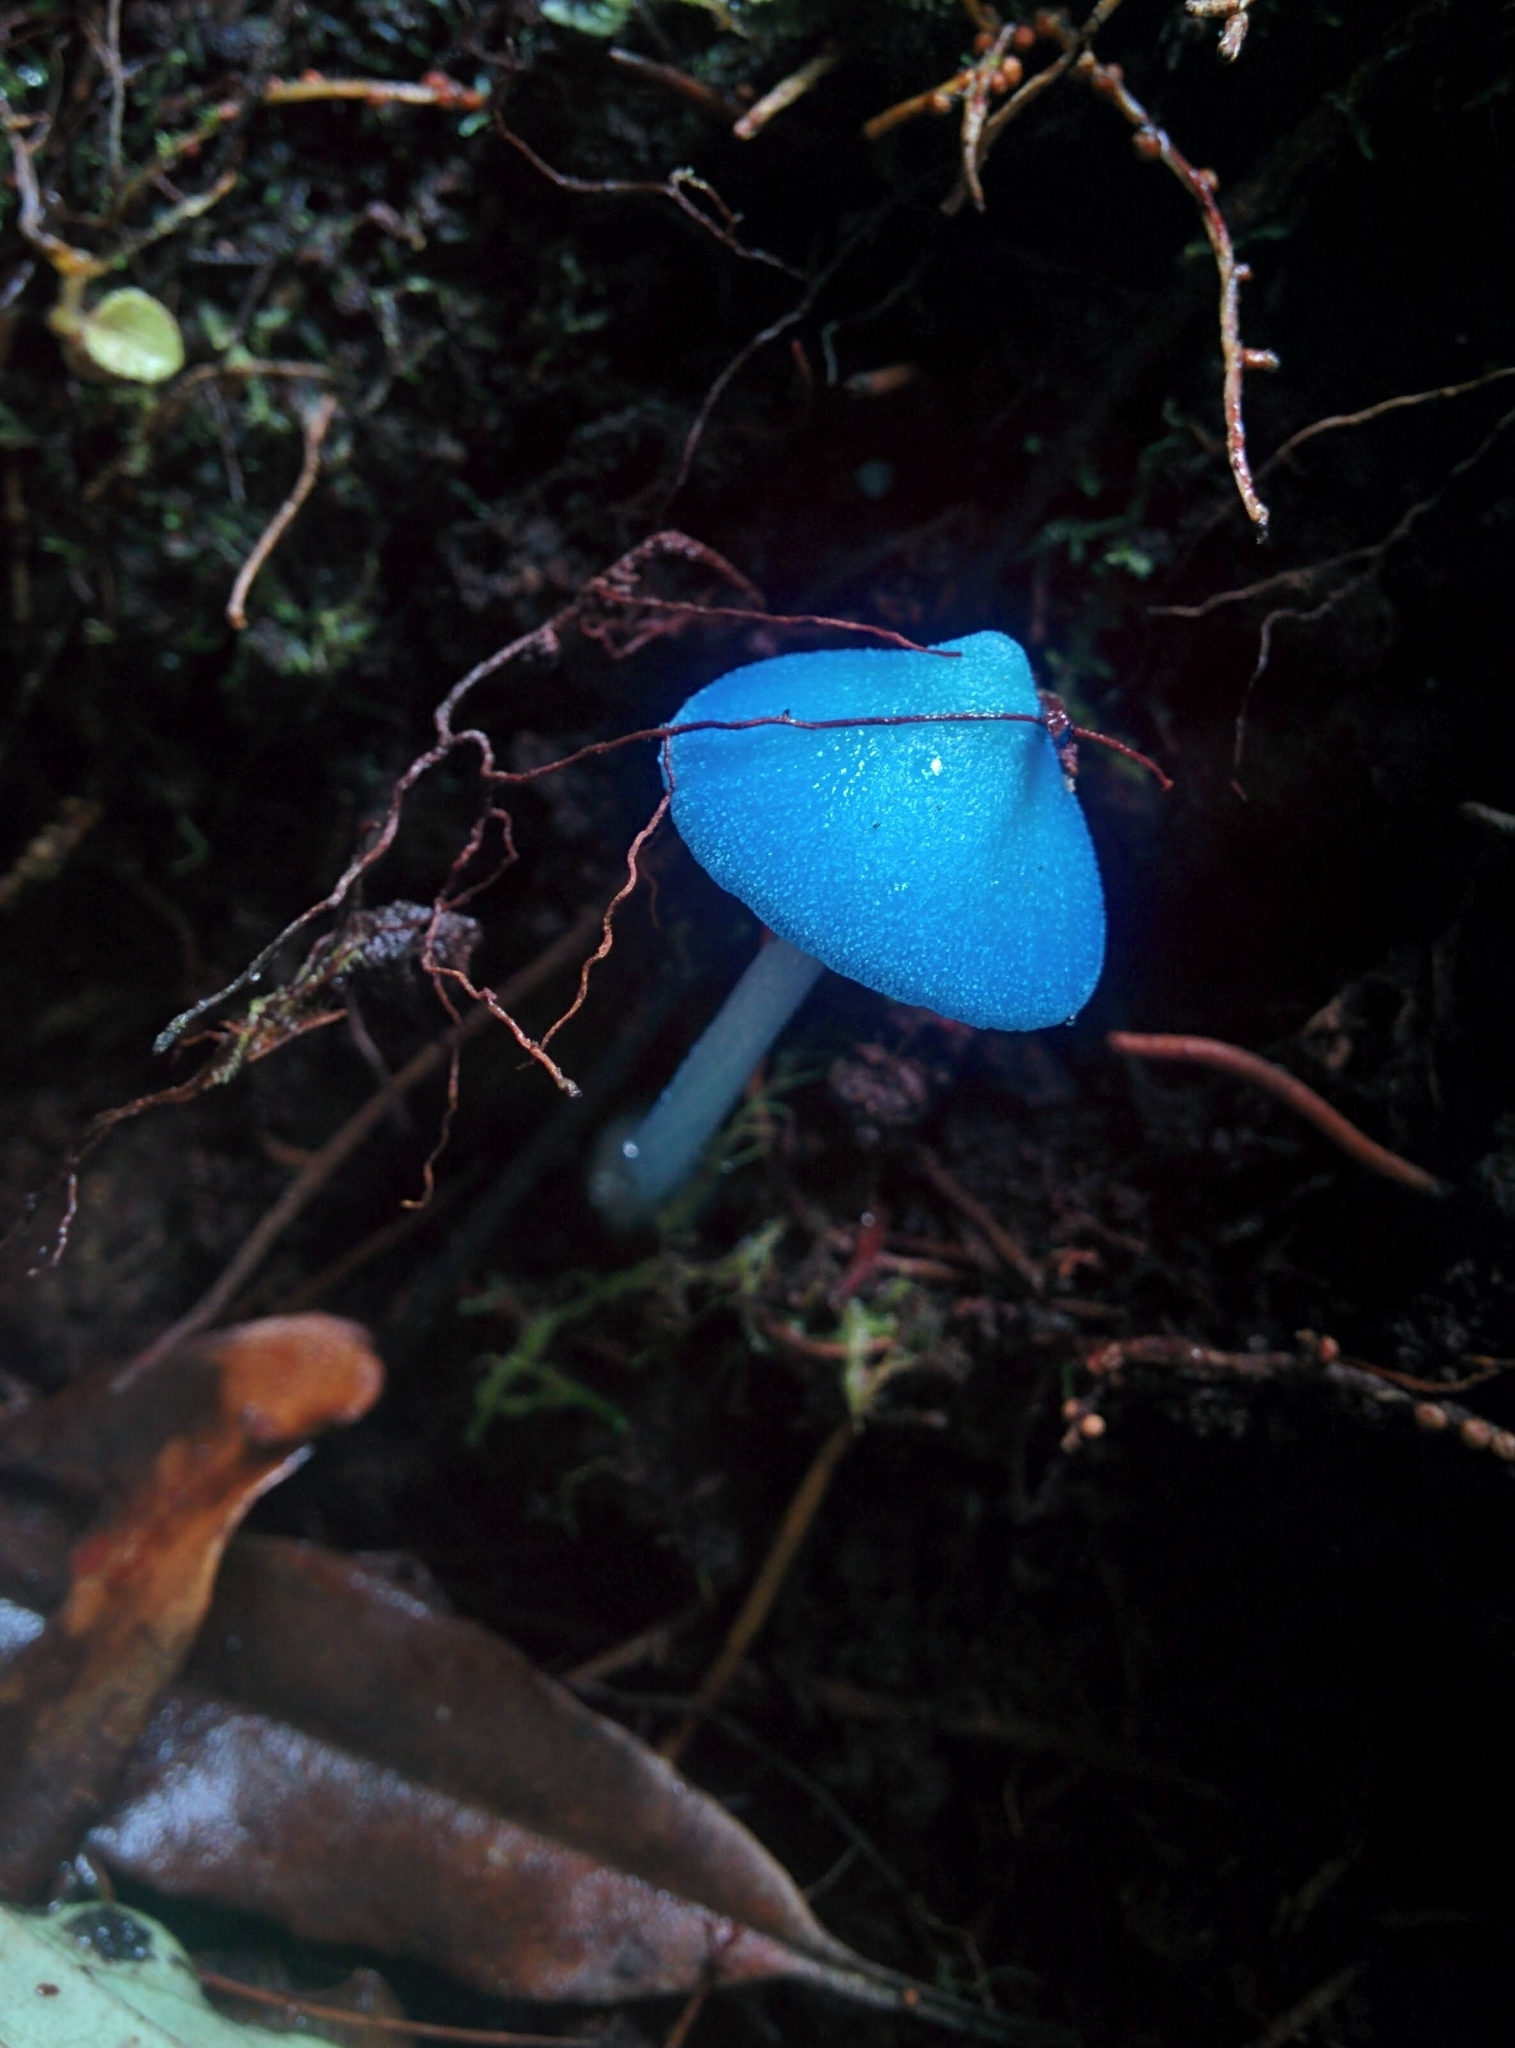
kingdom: Fungi
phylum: Basidiomycota
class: Agaricomycetes
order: Agaricales
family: Entolomataceae
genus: Entoloma
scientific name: Entoloma hochstetteri
